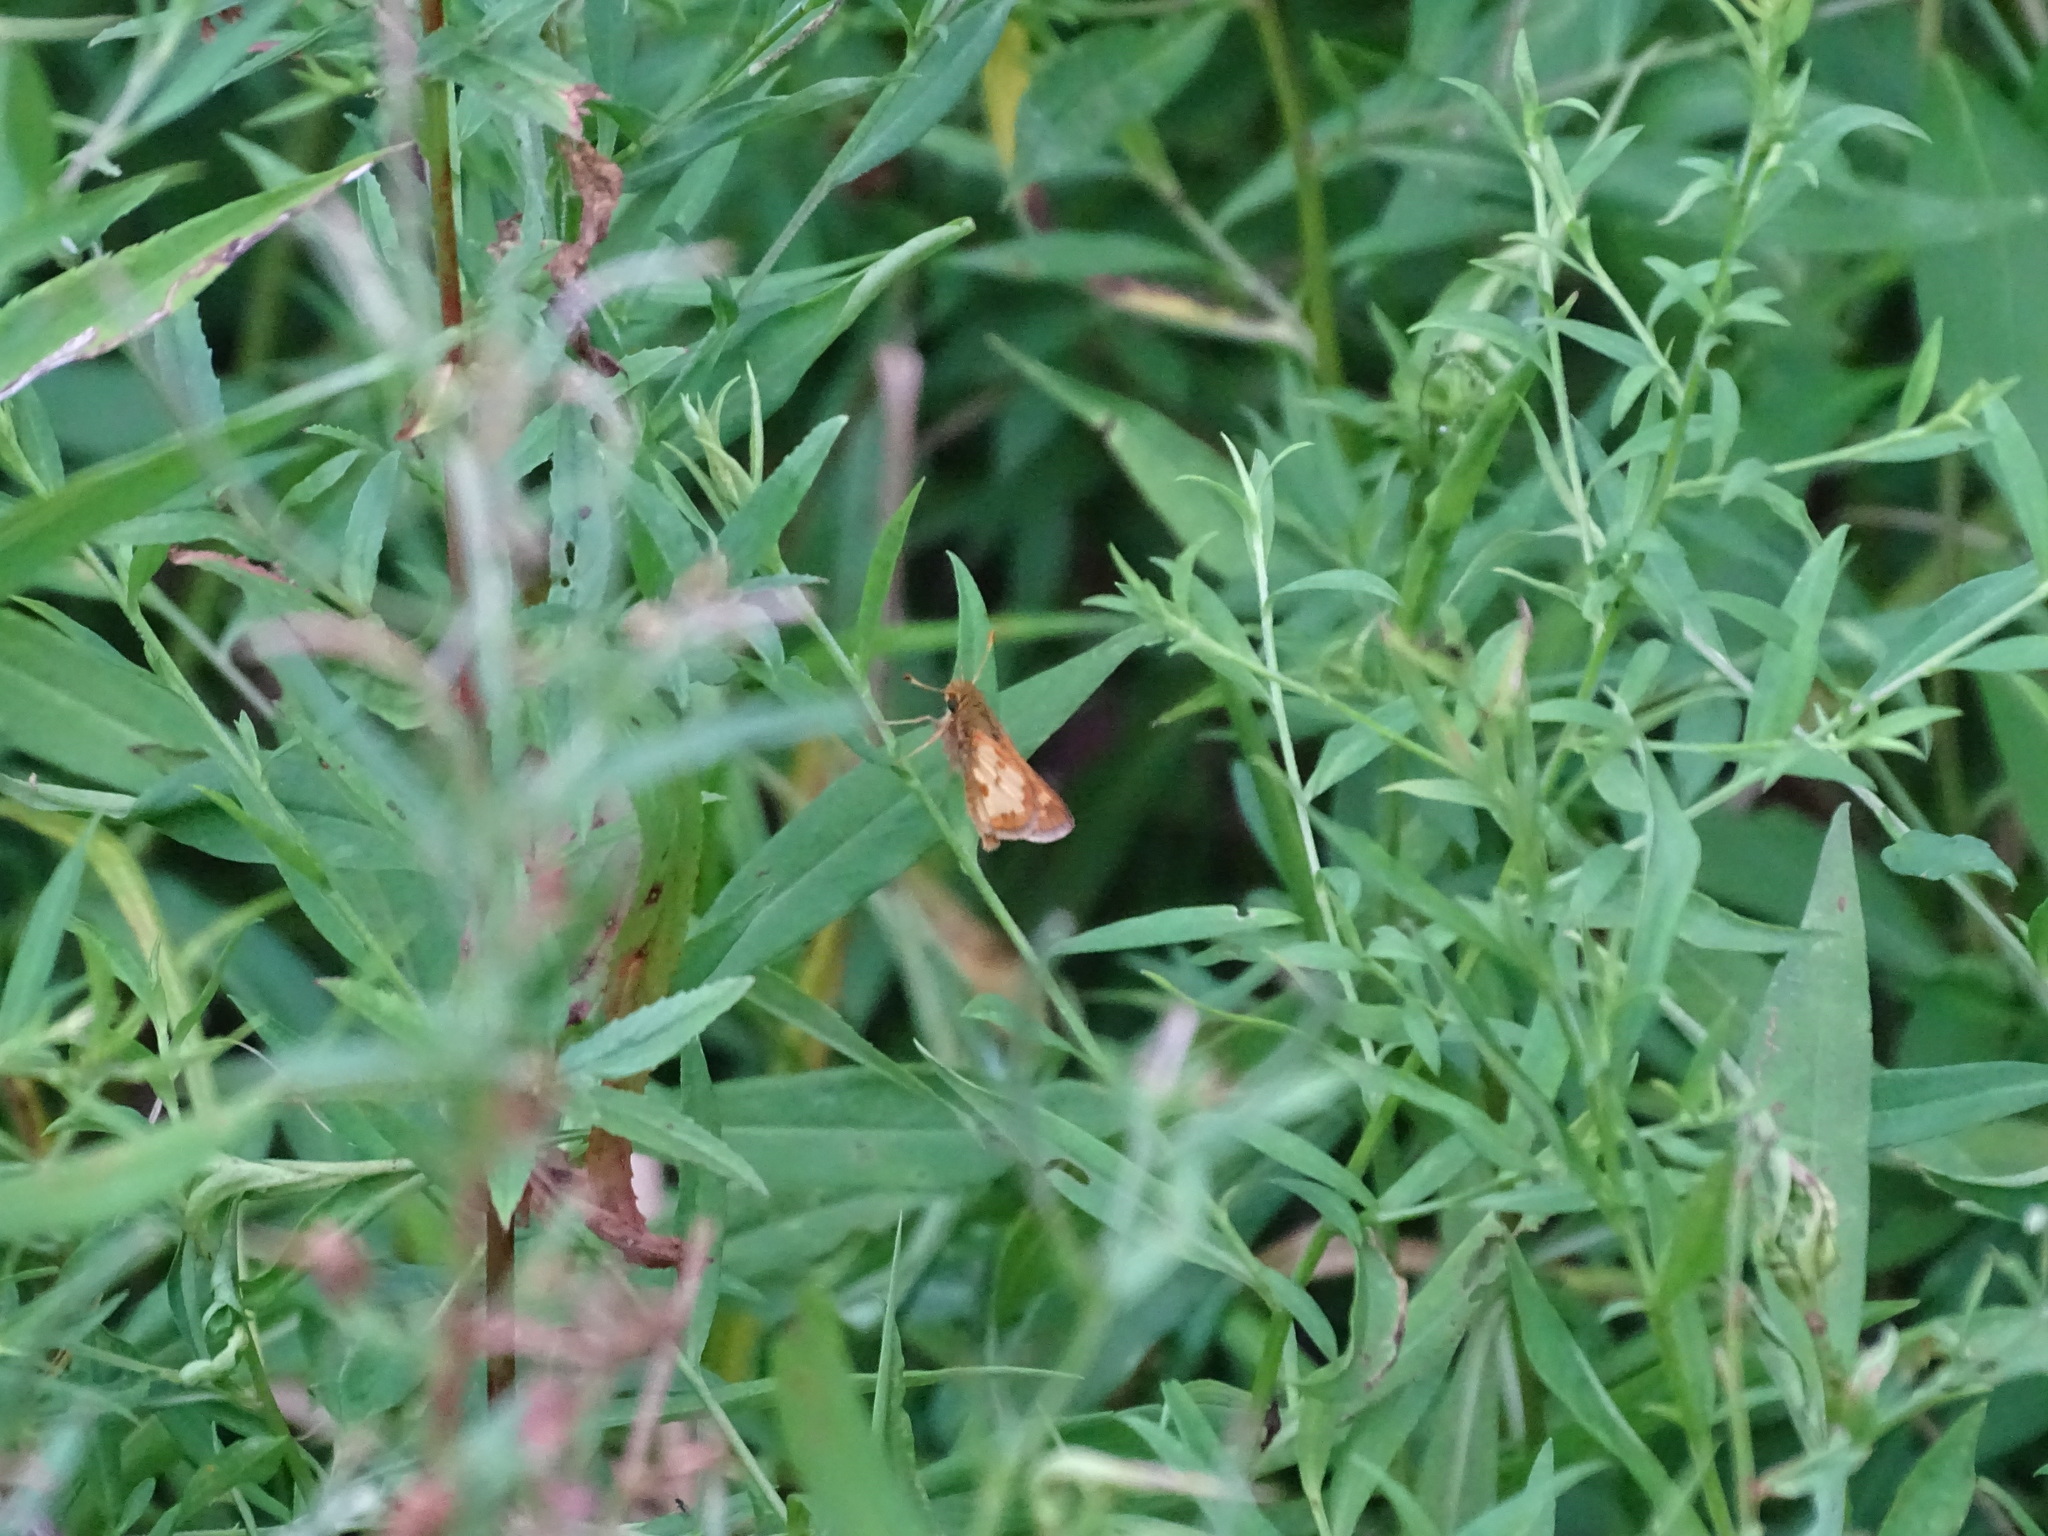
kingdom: Animalia
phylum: Arthropoda
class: Insecta
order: Lepidoptera
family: Hesperiidae
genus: Polites
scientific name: Polites coras
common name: Peck's skipper
